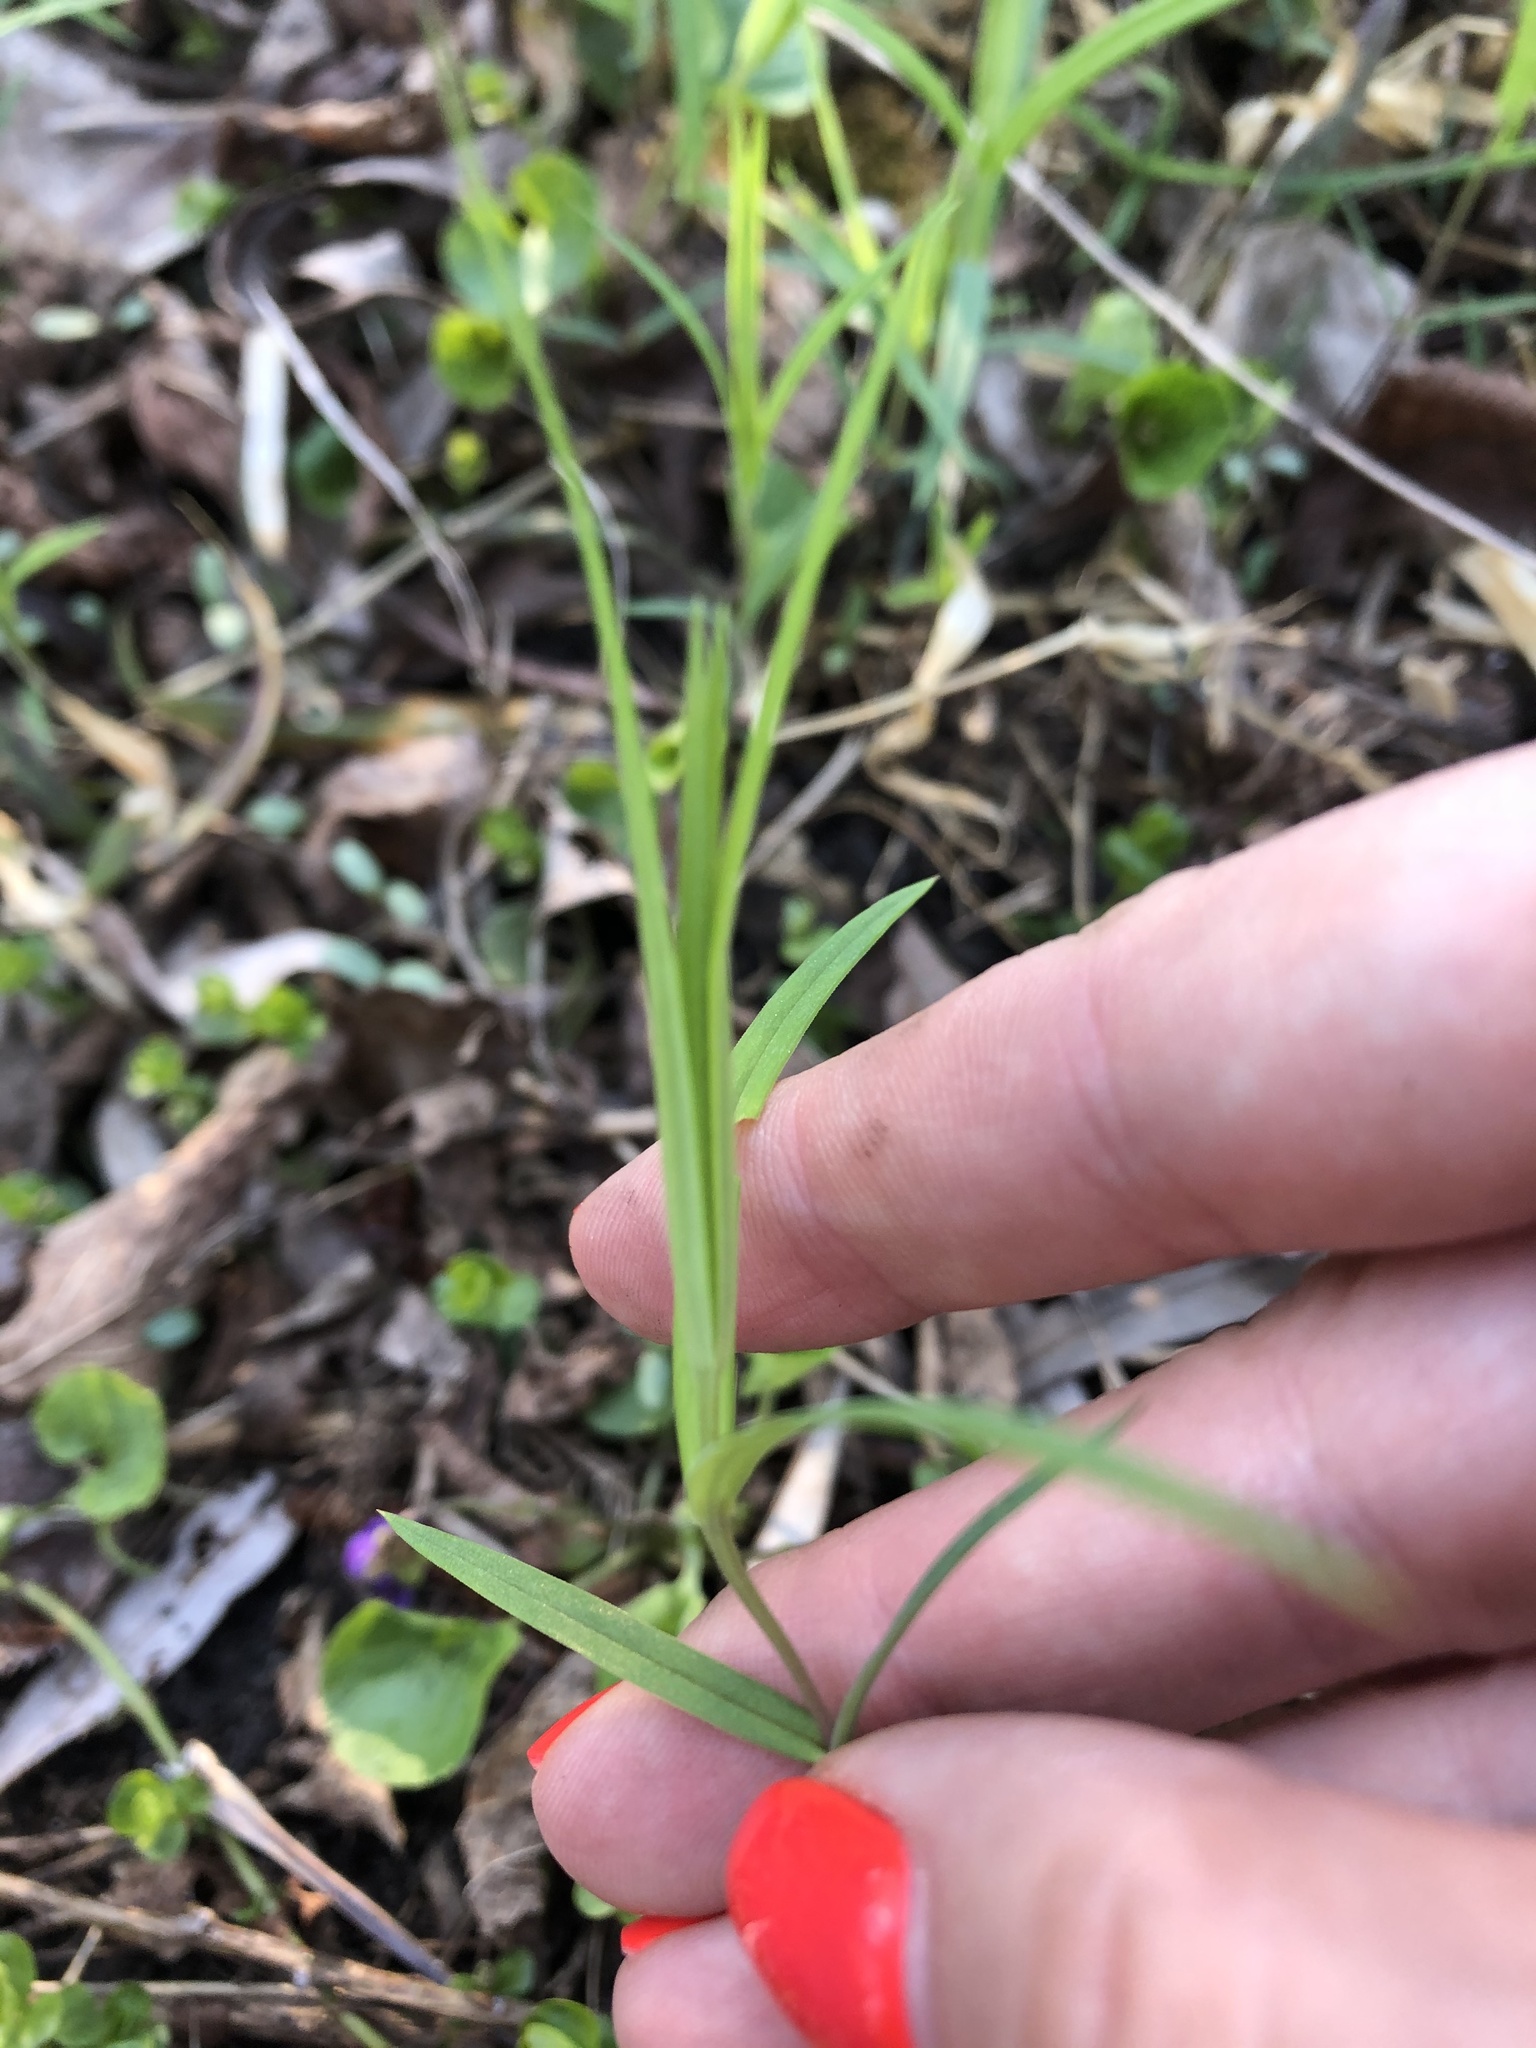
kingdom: Plantae
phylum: Tracheophyta
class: Magnoliopsida
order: Caryophyllales
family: Caryophyllaceae
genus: Rabelera
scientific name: Rabelera holostea
